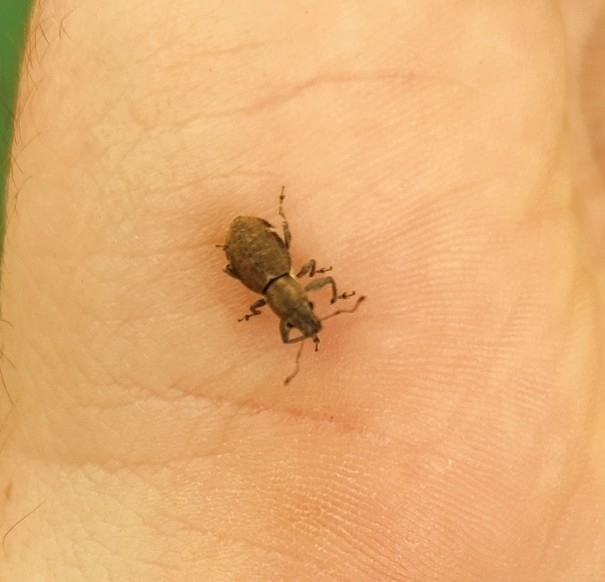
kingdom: Animalia
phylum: Arthropoda
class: Insecta
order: Coleoptera
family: Curculionidae
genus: Naupactus
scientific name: Naupactus cervinus
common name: Fuller rose beetle
